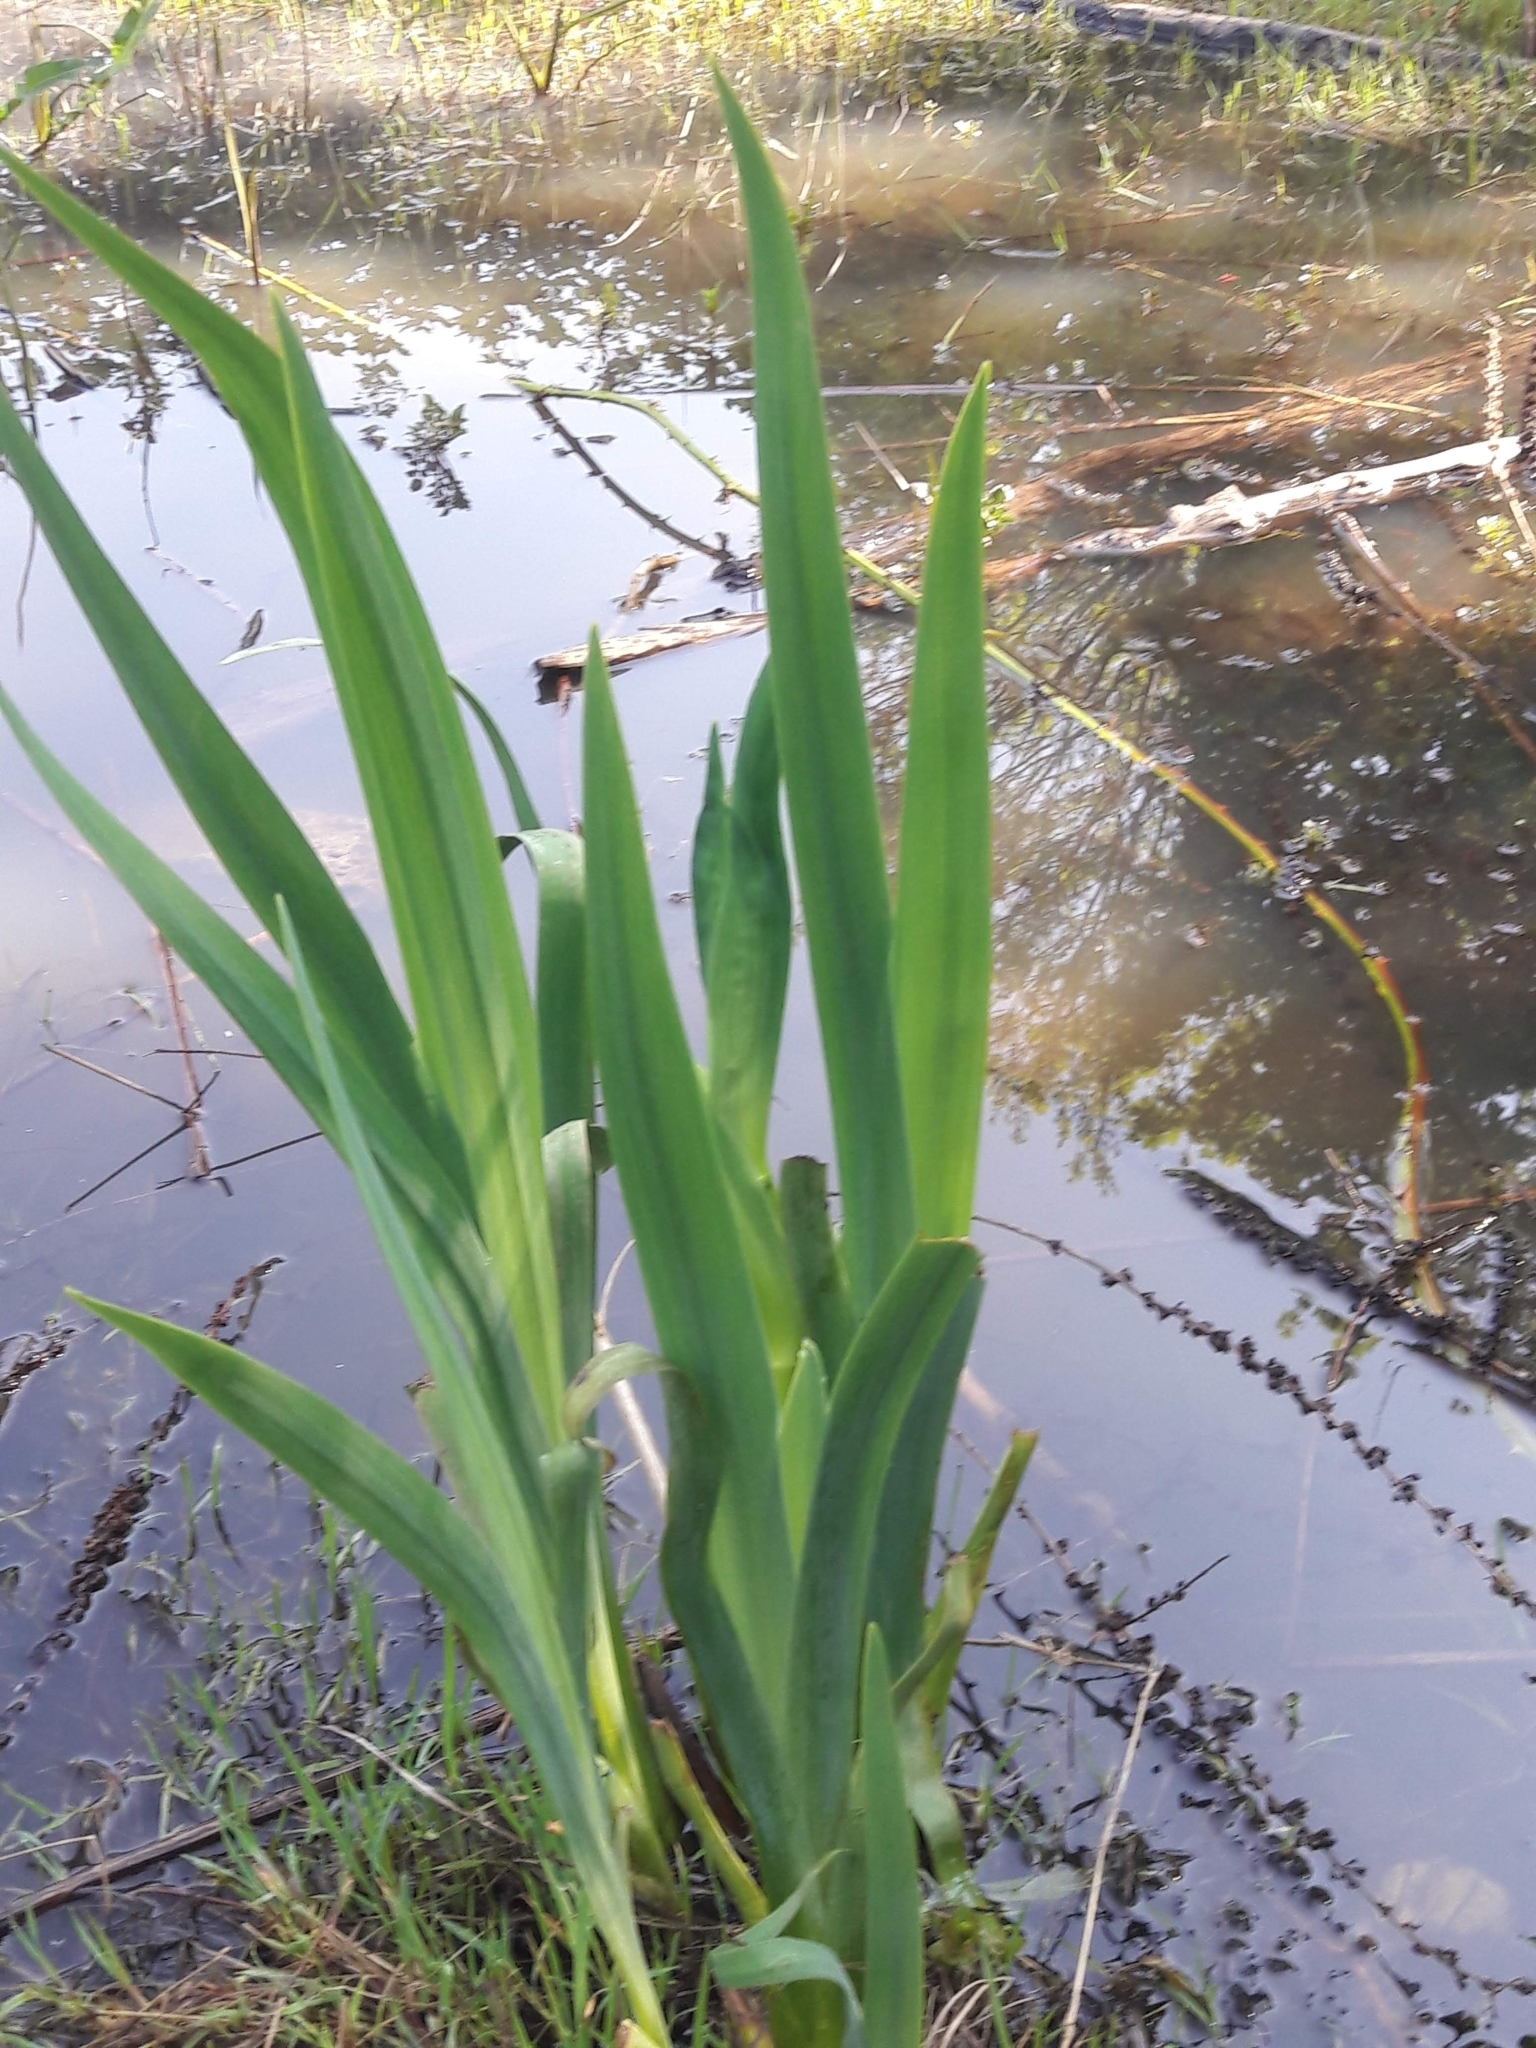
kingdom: Plantae
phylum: Tracheophyta
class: Liliopsida
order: Asparagales
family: Iridaceae
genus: Iris
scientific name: Iris pseudacorus
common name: Yellow flag
